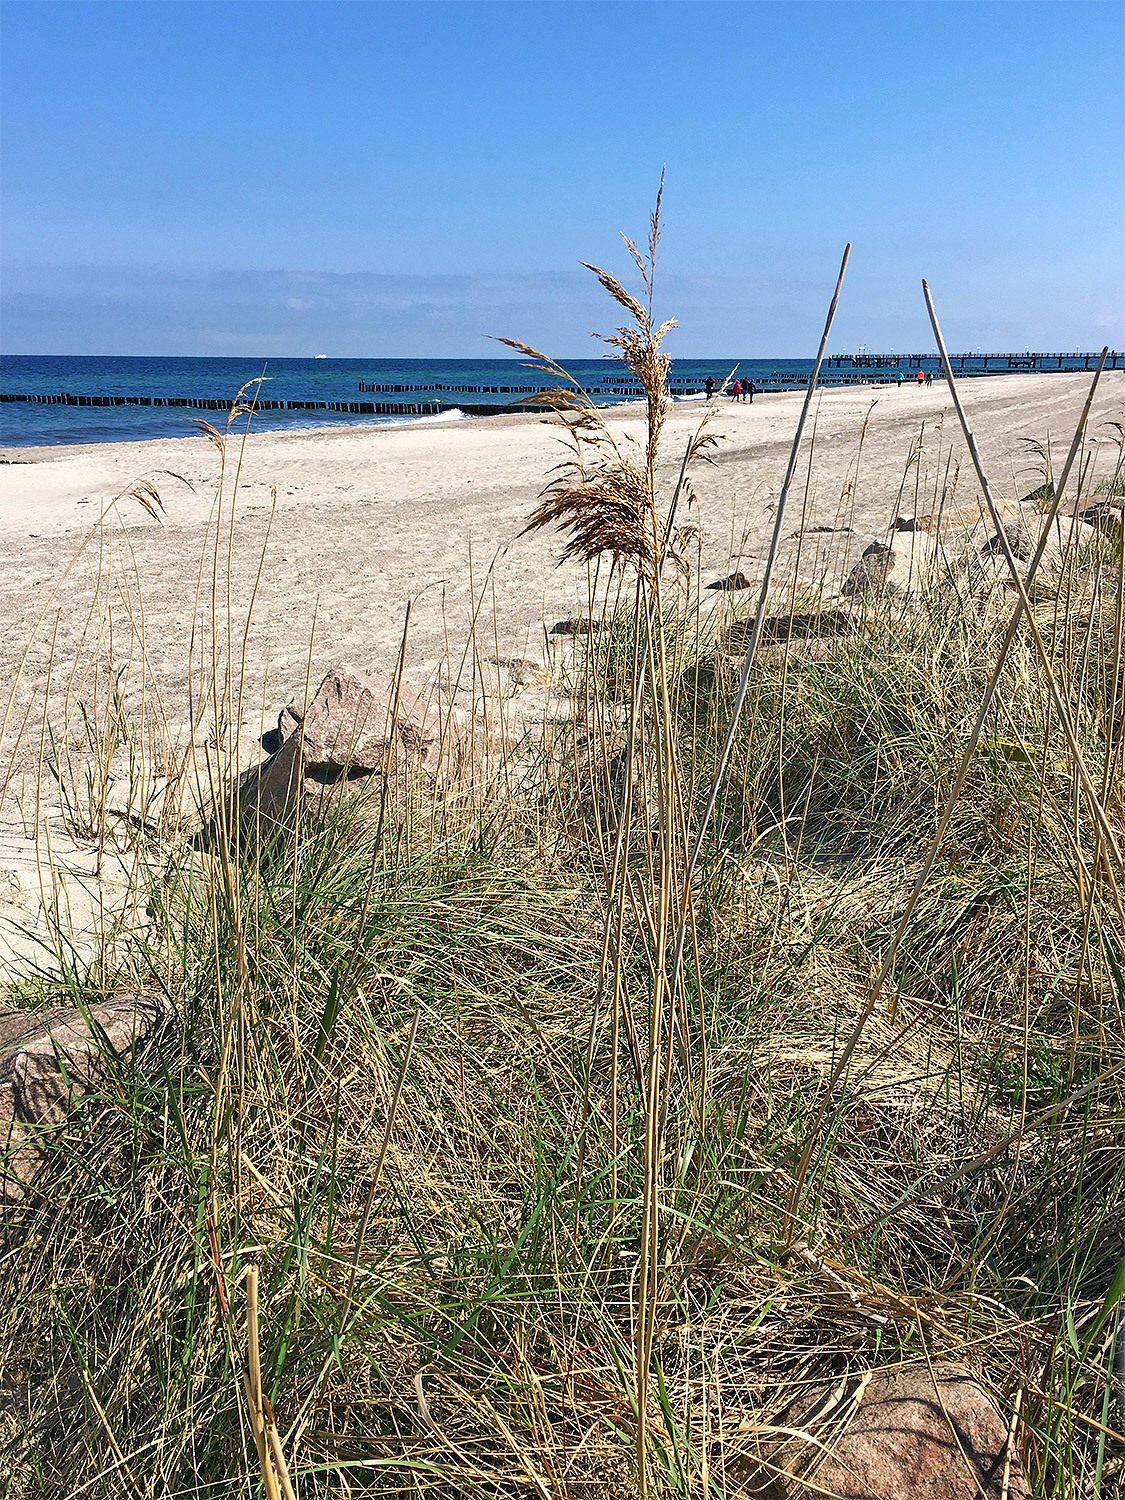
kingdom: Plantae
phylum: Tracheophyta
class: Liliopsida
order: Poales
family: Poaceae
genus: Phragmites
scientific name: Phragmites australis
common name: Common reed
